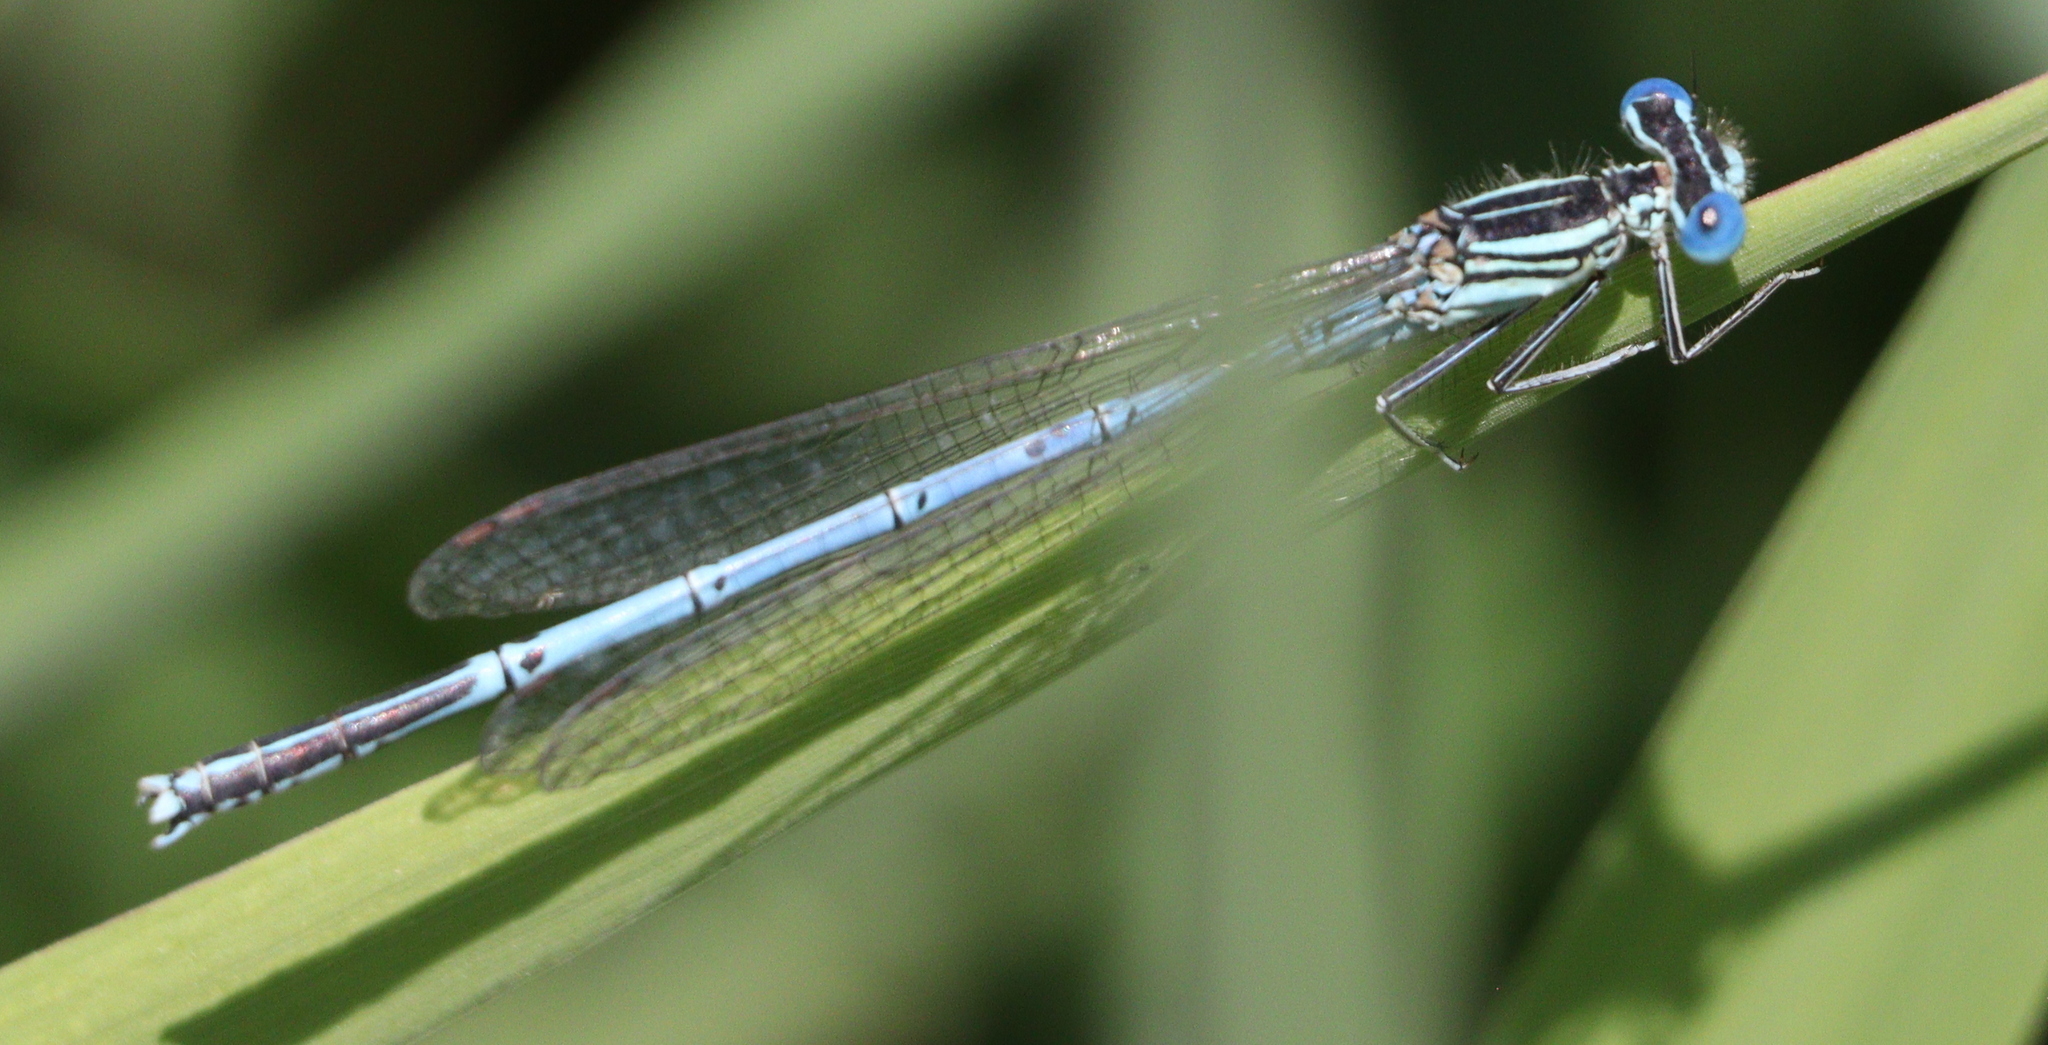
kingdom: Animalia
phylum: Arthropoda
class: Insecta
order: Odonata
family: Platycnemididae
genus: Platycnemis
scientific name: Platycnemis pennipes
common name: White-legged damselfly
